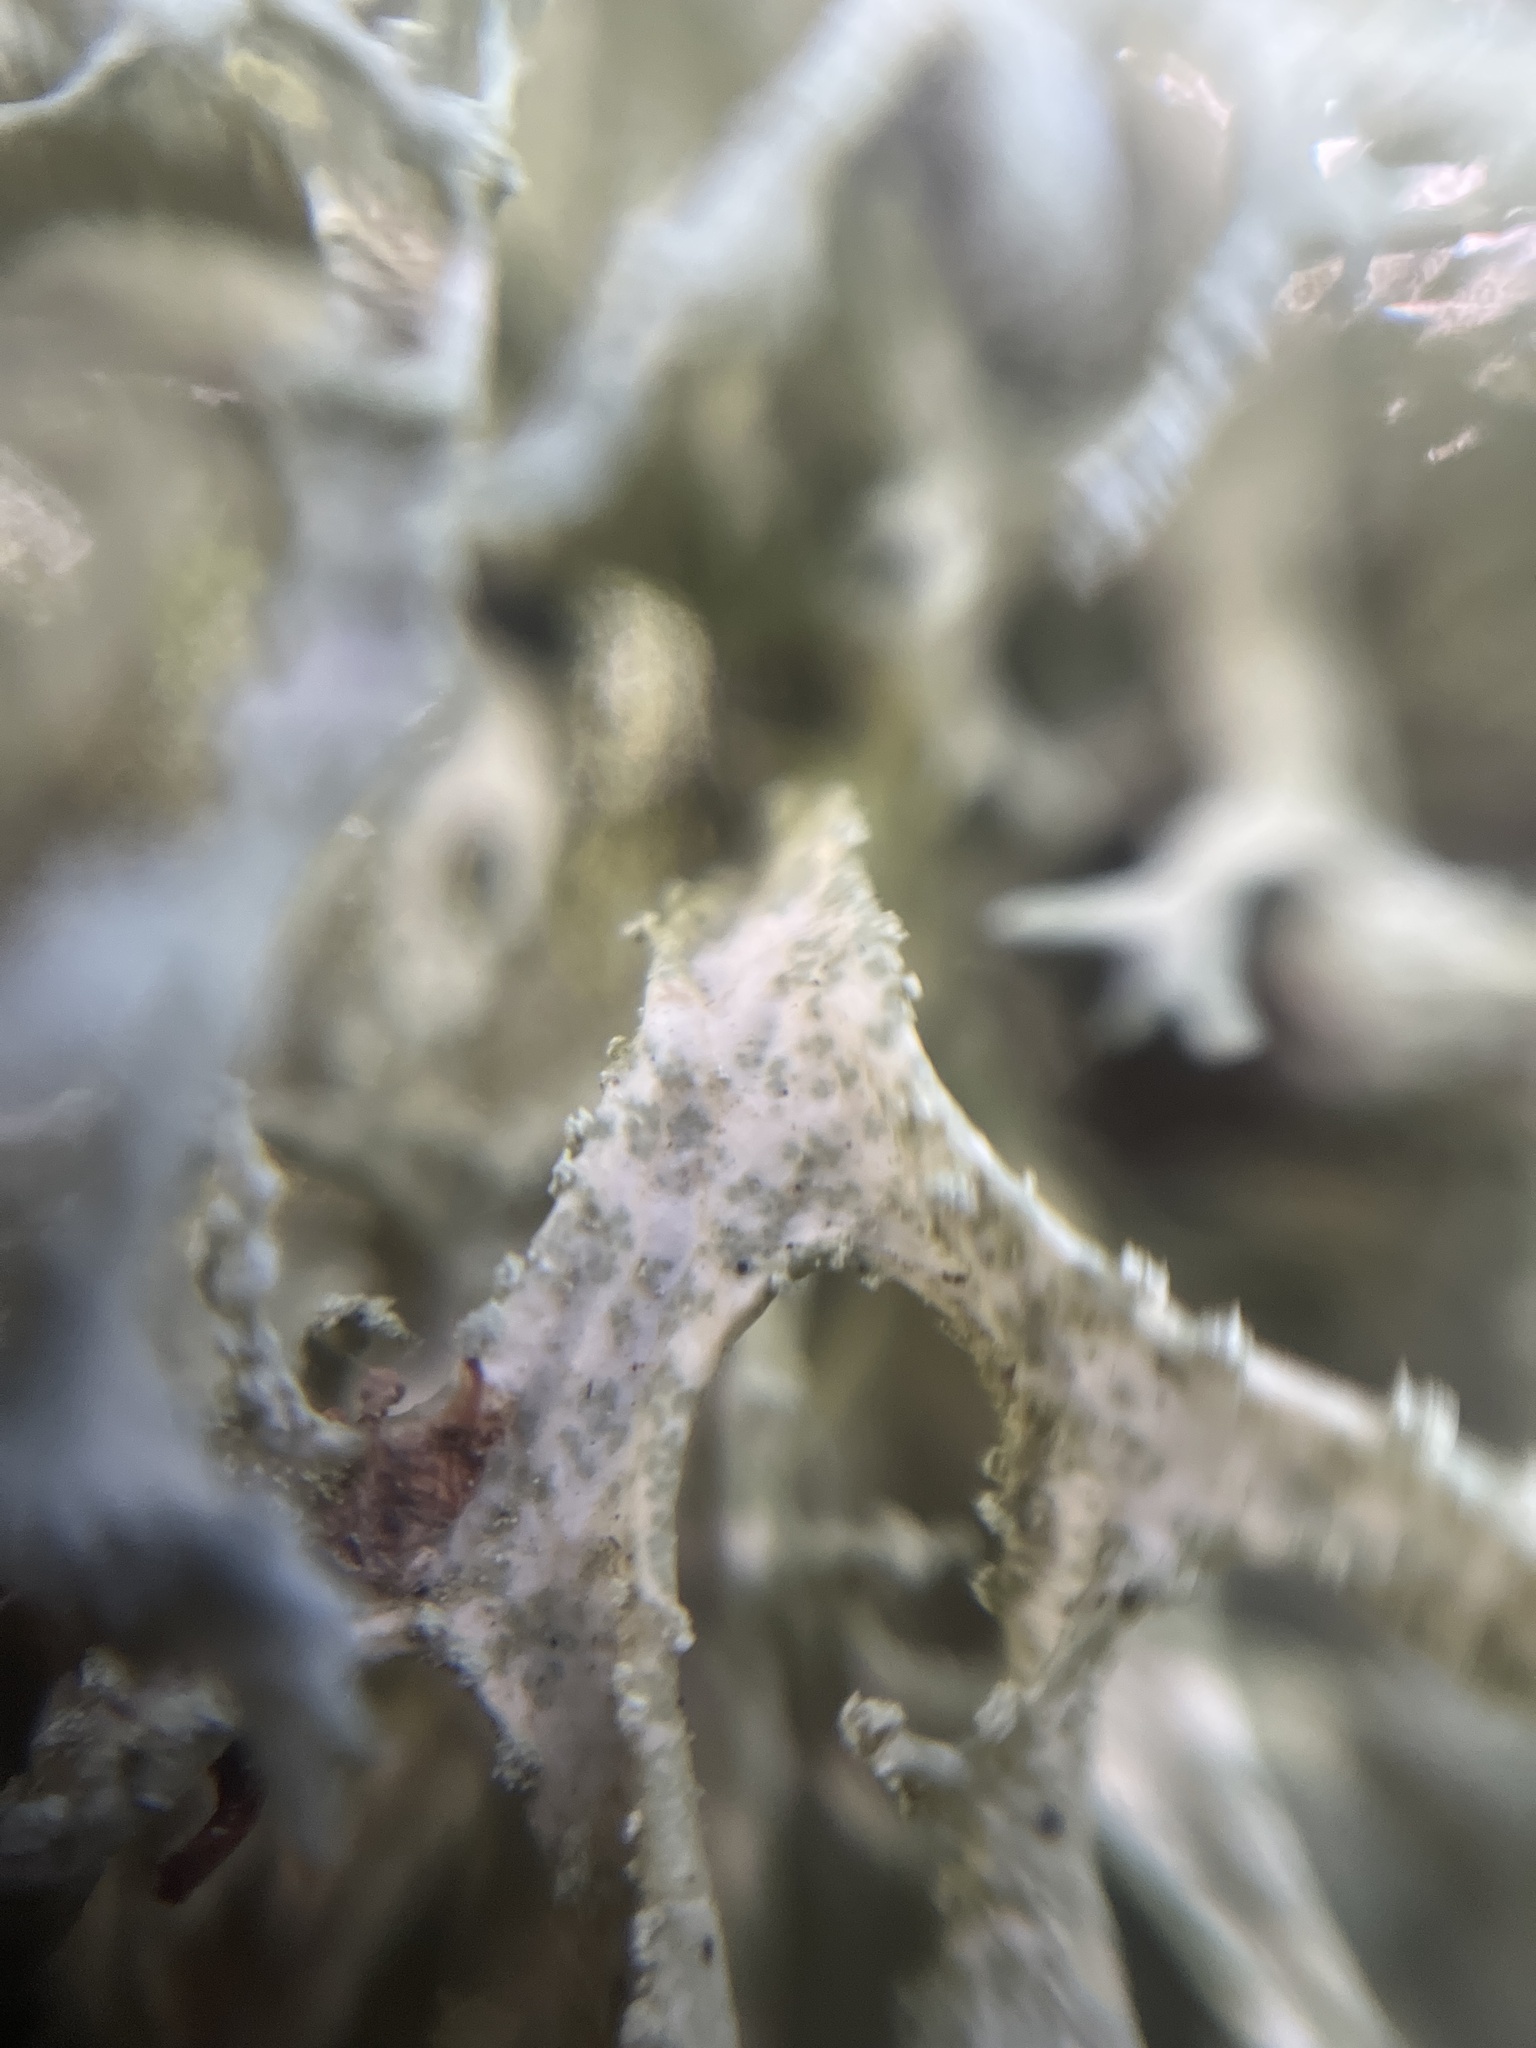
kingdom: Fungi
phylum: Ascomycota
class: Lecanoromycetes
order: Lecanorales
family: Parmeliaceae
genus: Evernia
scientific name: Evernia prunastri
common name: Oak moss
